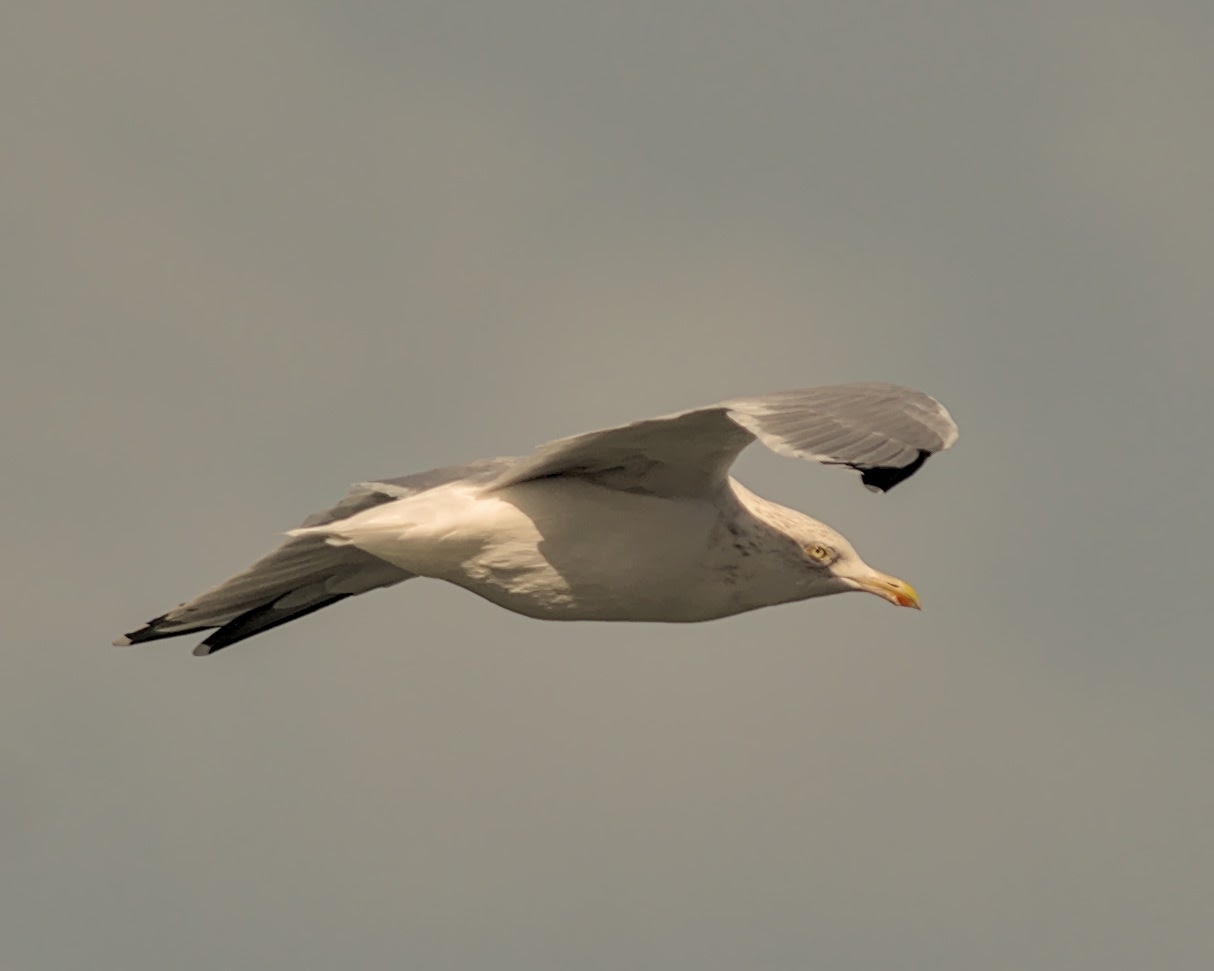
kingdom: Animalia
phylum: Chordata
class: Aves
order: Charadriiformes
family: Laridae
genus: Larus
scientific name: Larus argentatus
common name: Herring gull
